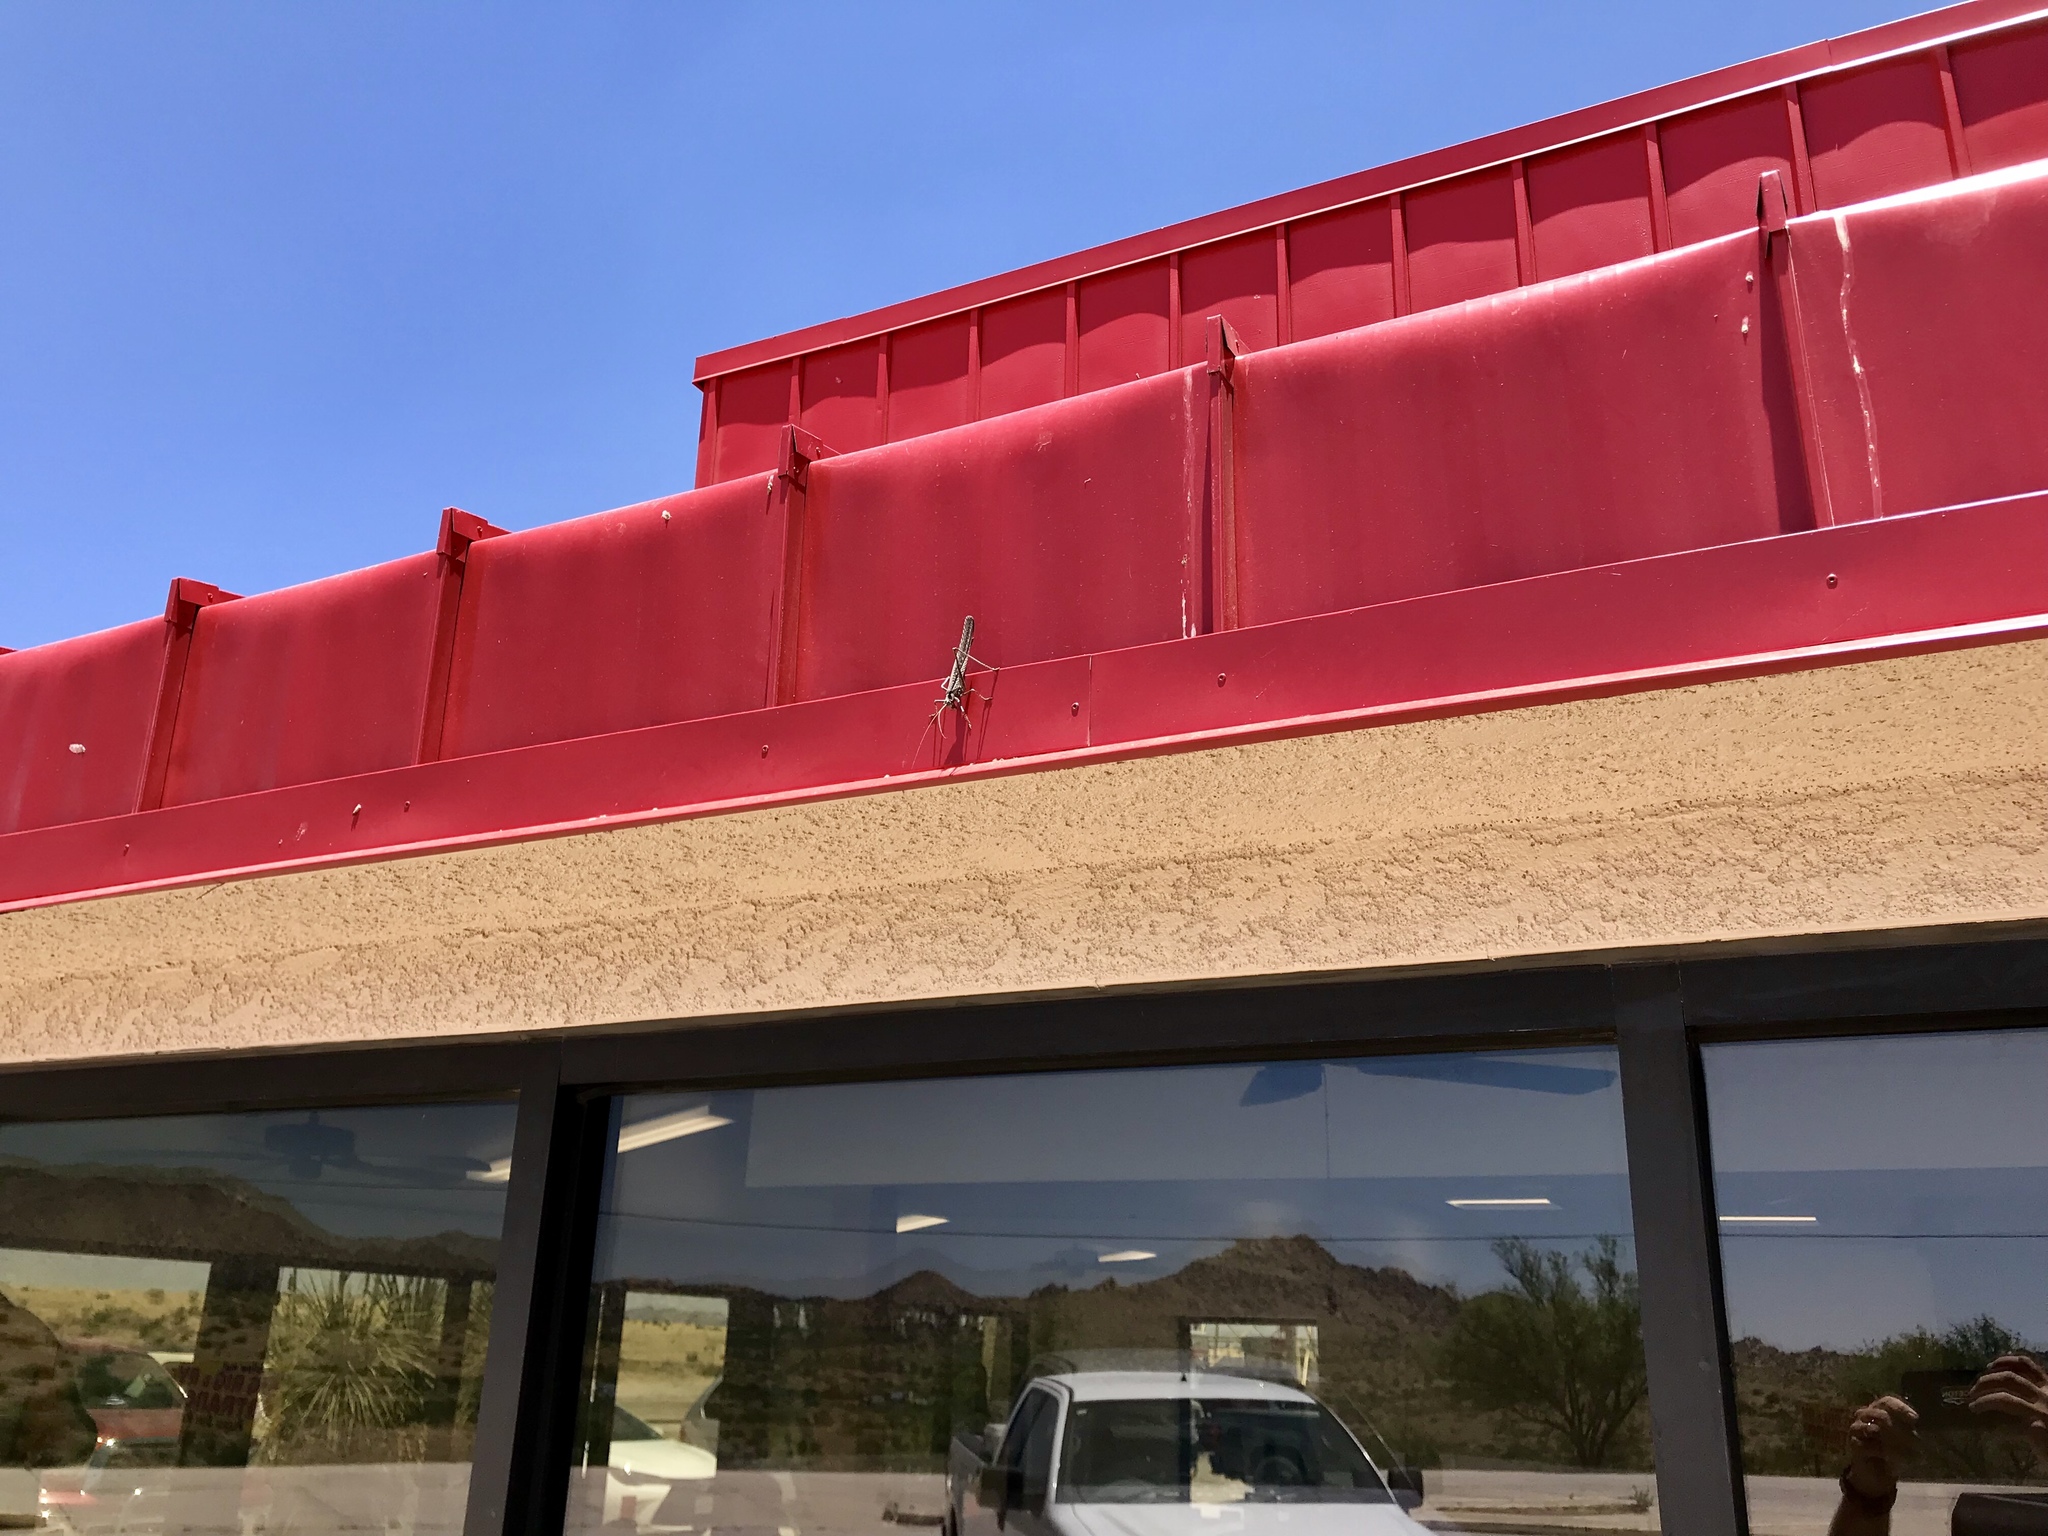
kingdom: Animalia
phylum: Arthropoda
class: Insecta
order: Orthoptera
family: Tettigoniidae
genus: Capnobotes
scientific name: Capnobotes fuliginosus
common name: Sooty longwing
